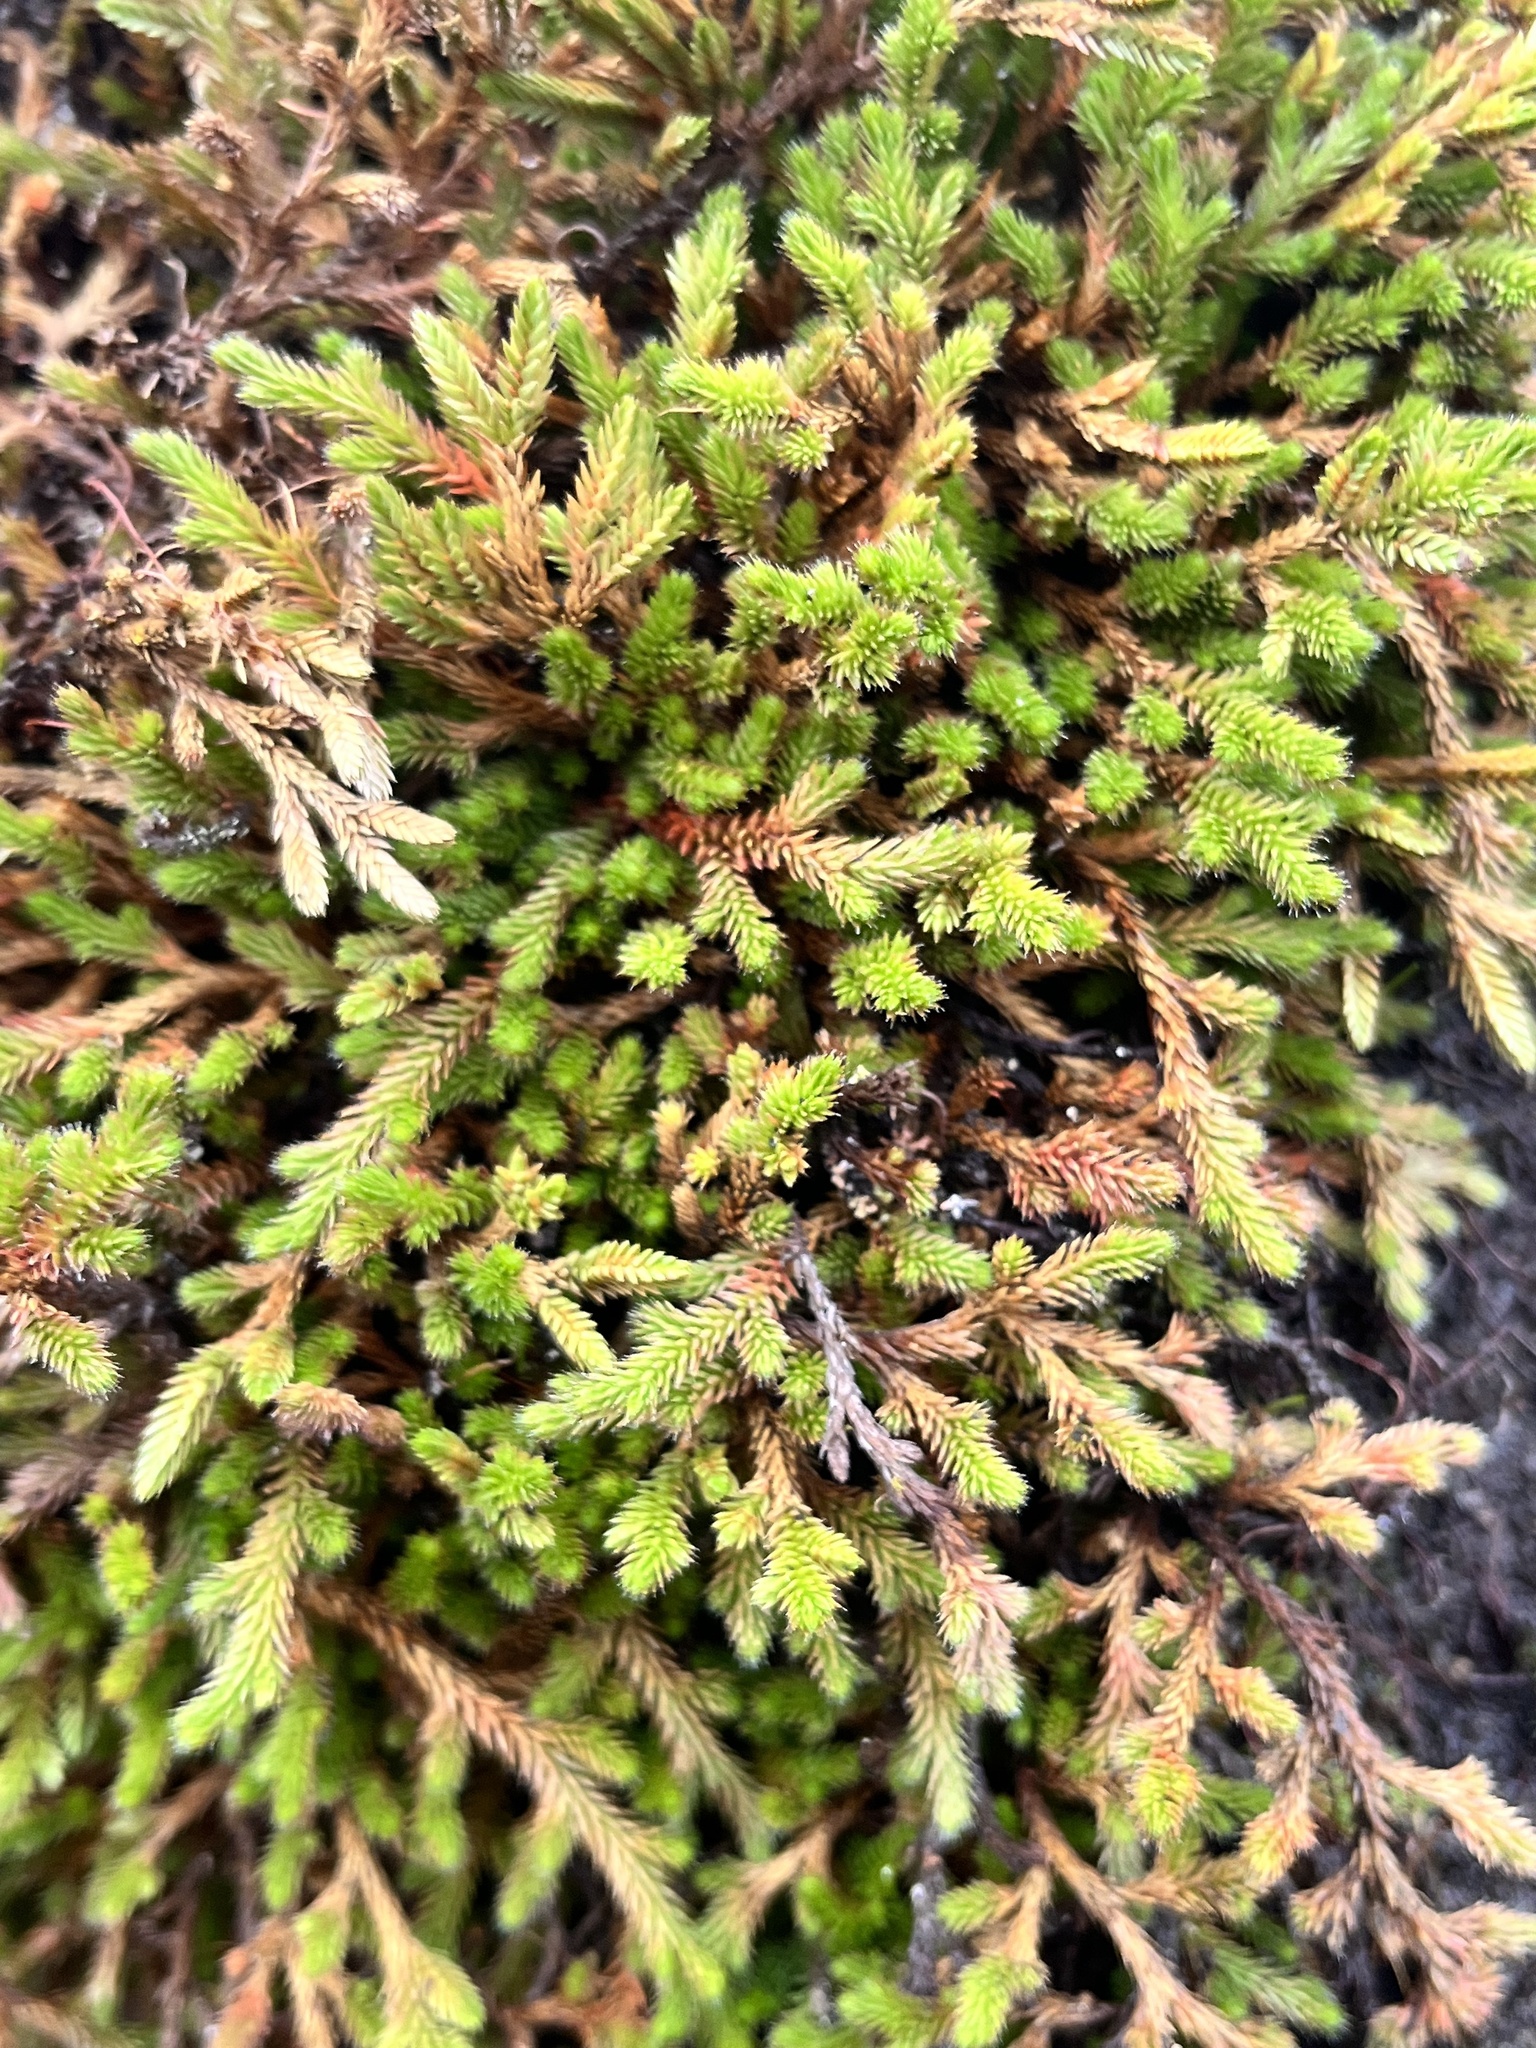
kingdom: Plantae
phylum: Tracheophyta
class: Lycopodiopsida
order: Selaginellales
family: Selaginellaceae
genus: Selaginella
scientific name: Selaginella wallacei
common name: Wallace's selaginella
